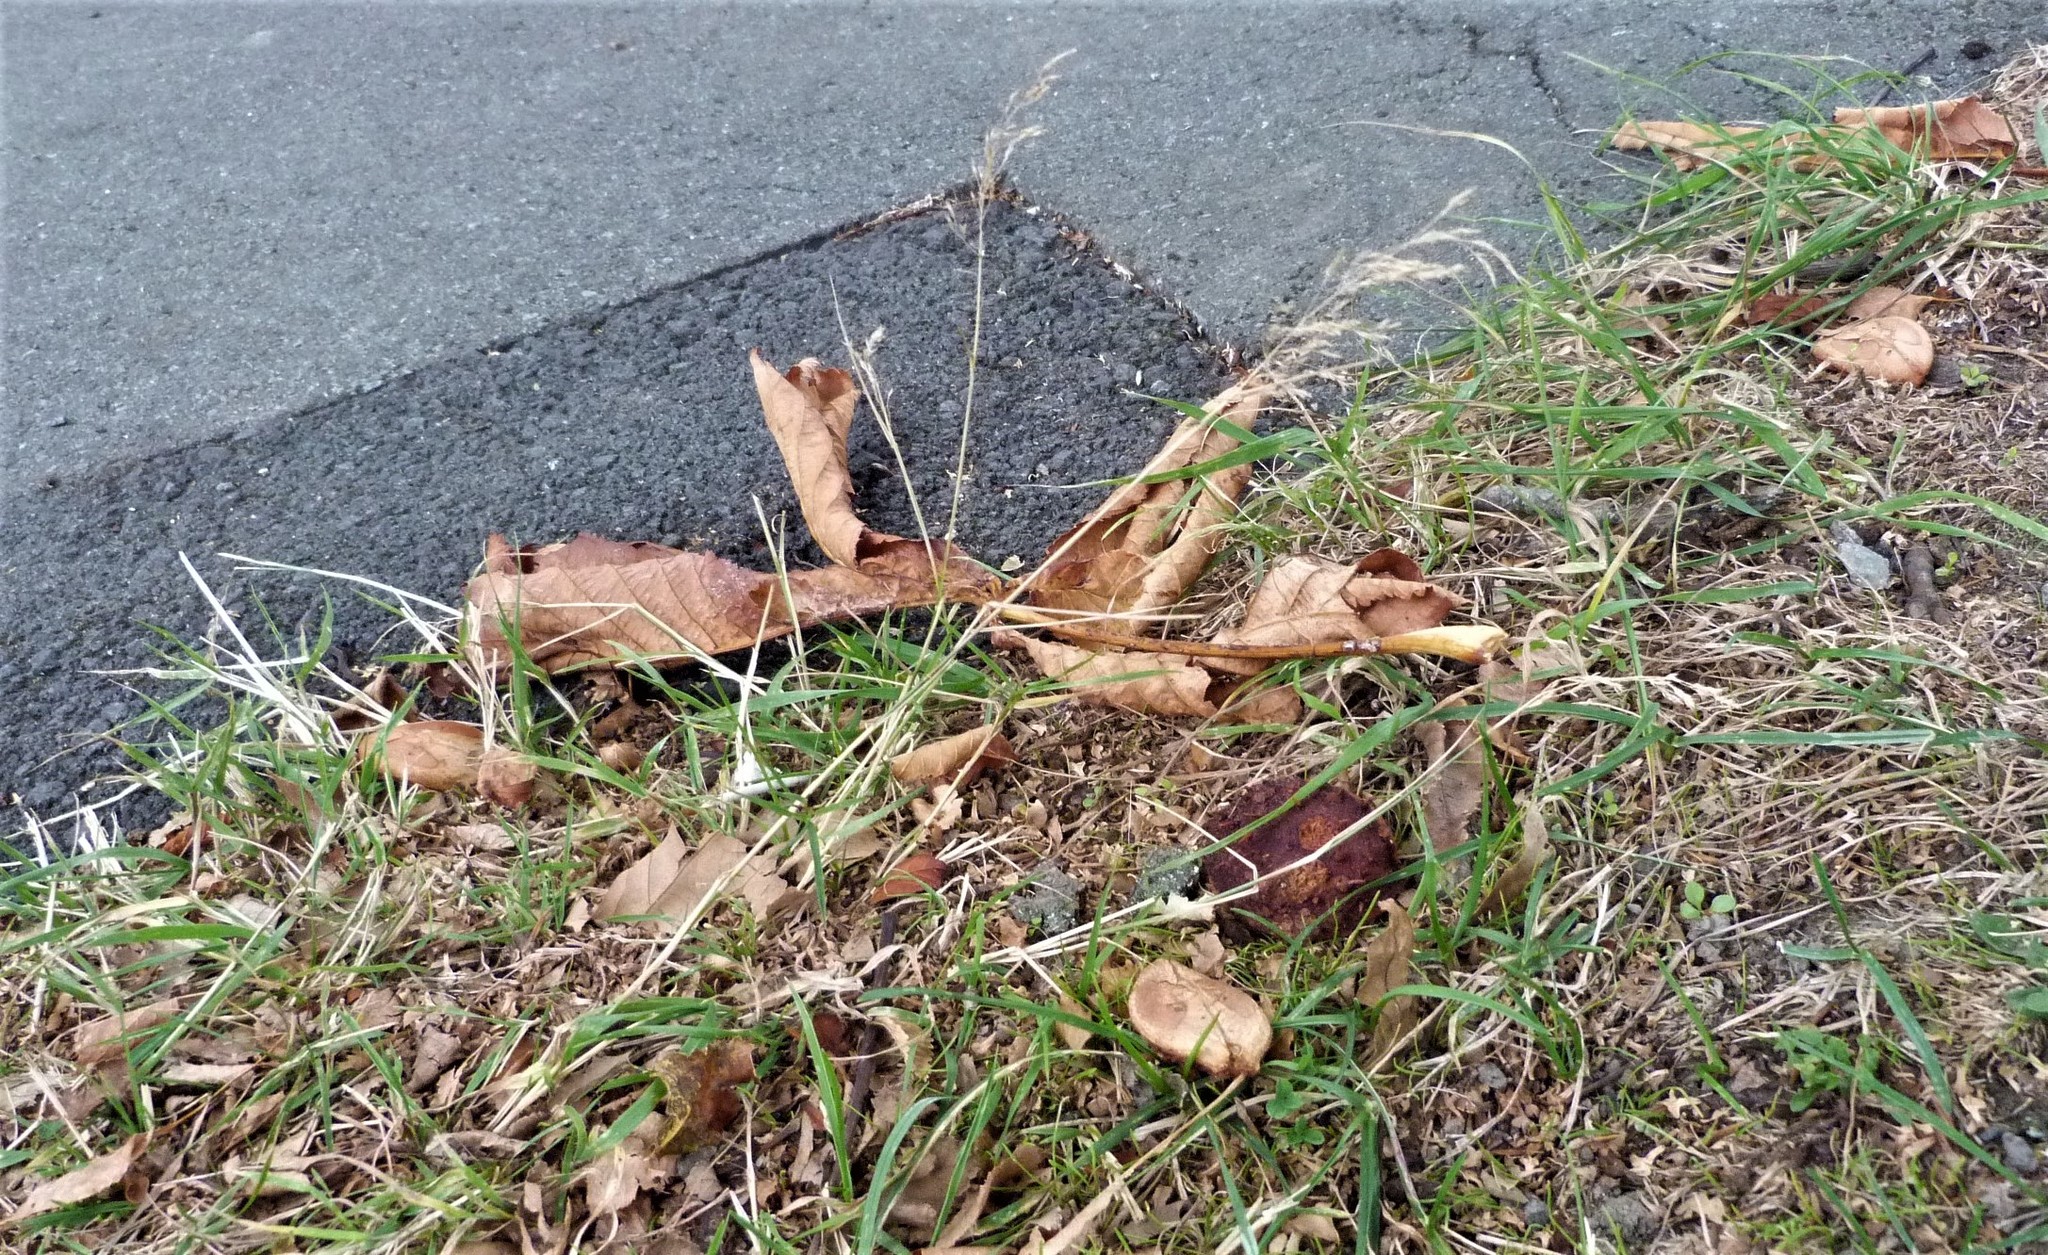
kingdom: Plantae
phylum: Tracheophyta
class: Liliopsida
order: Poales
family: Poaceae
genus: Agrostis
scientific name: Agrostis capillaris
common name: Colonial bentgrass
